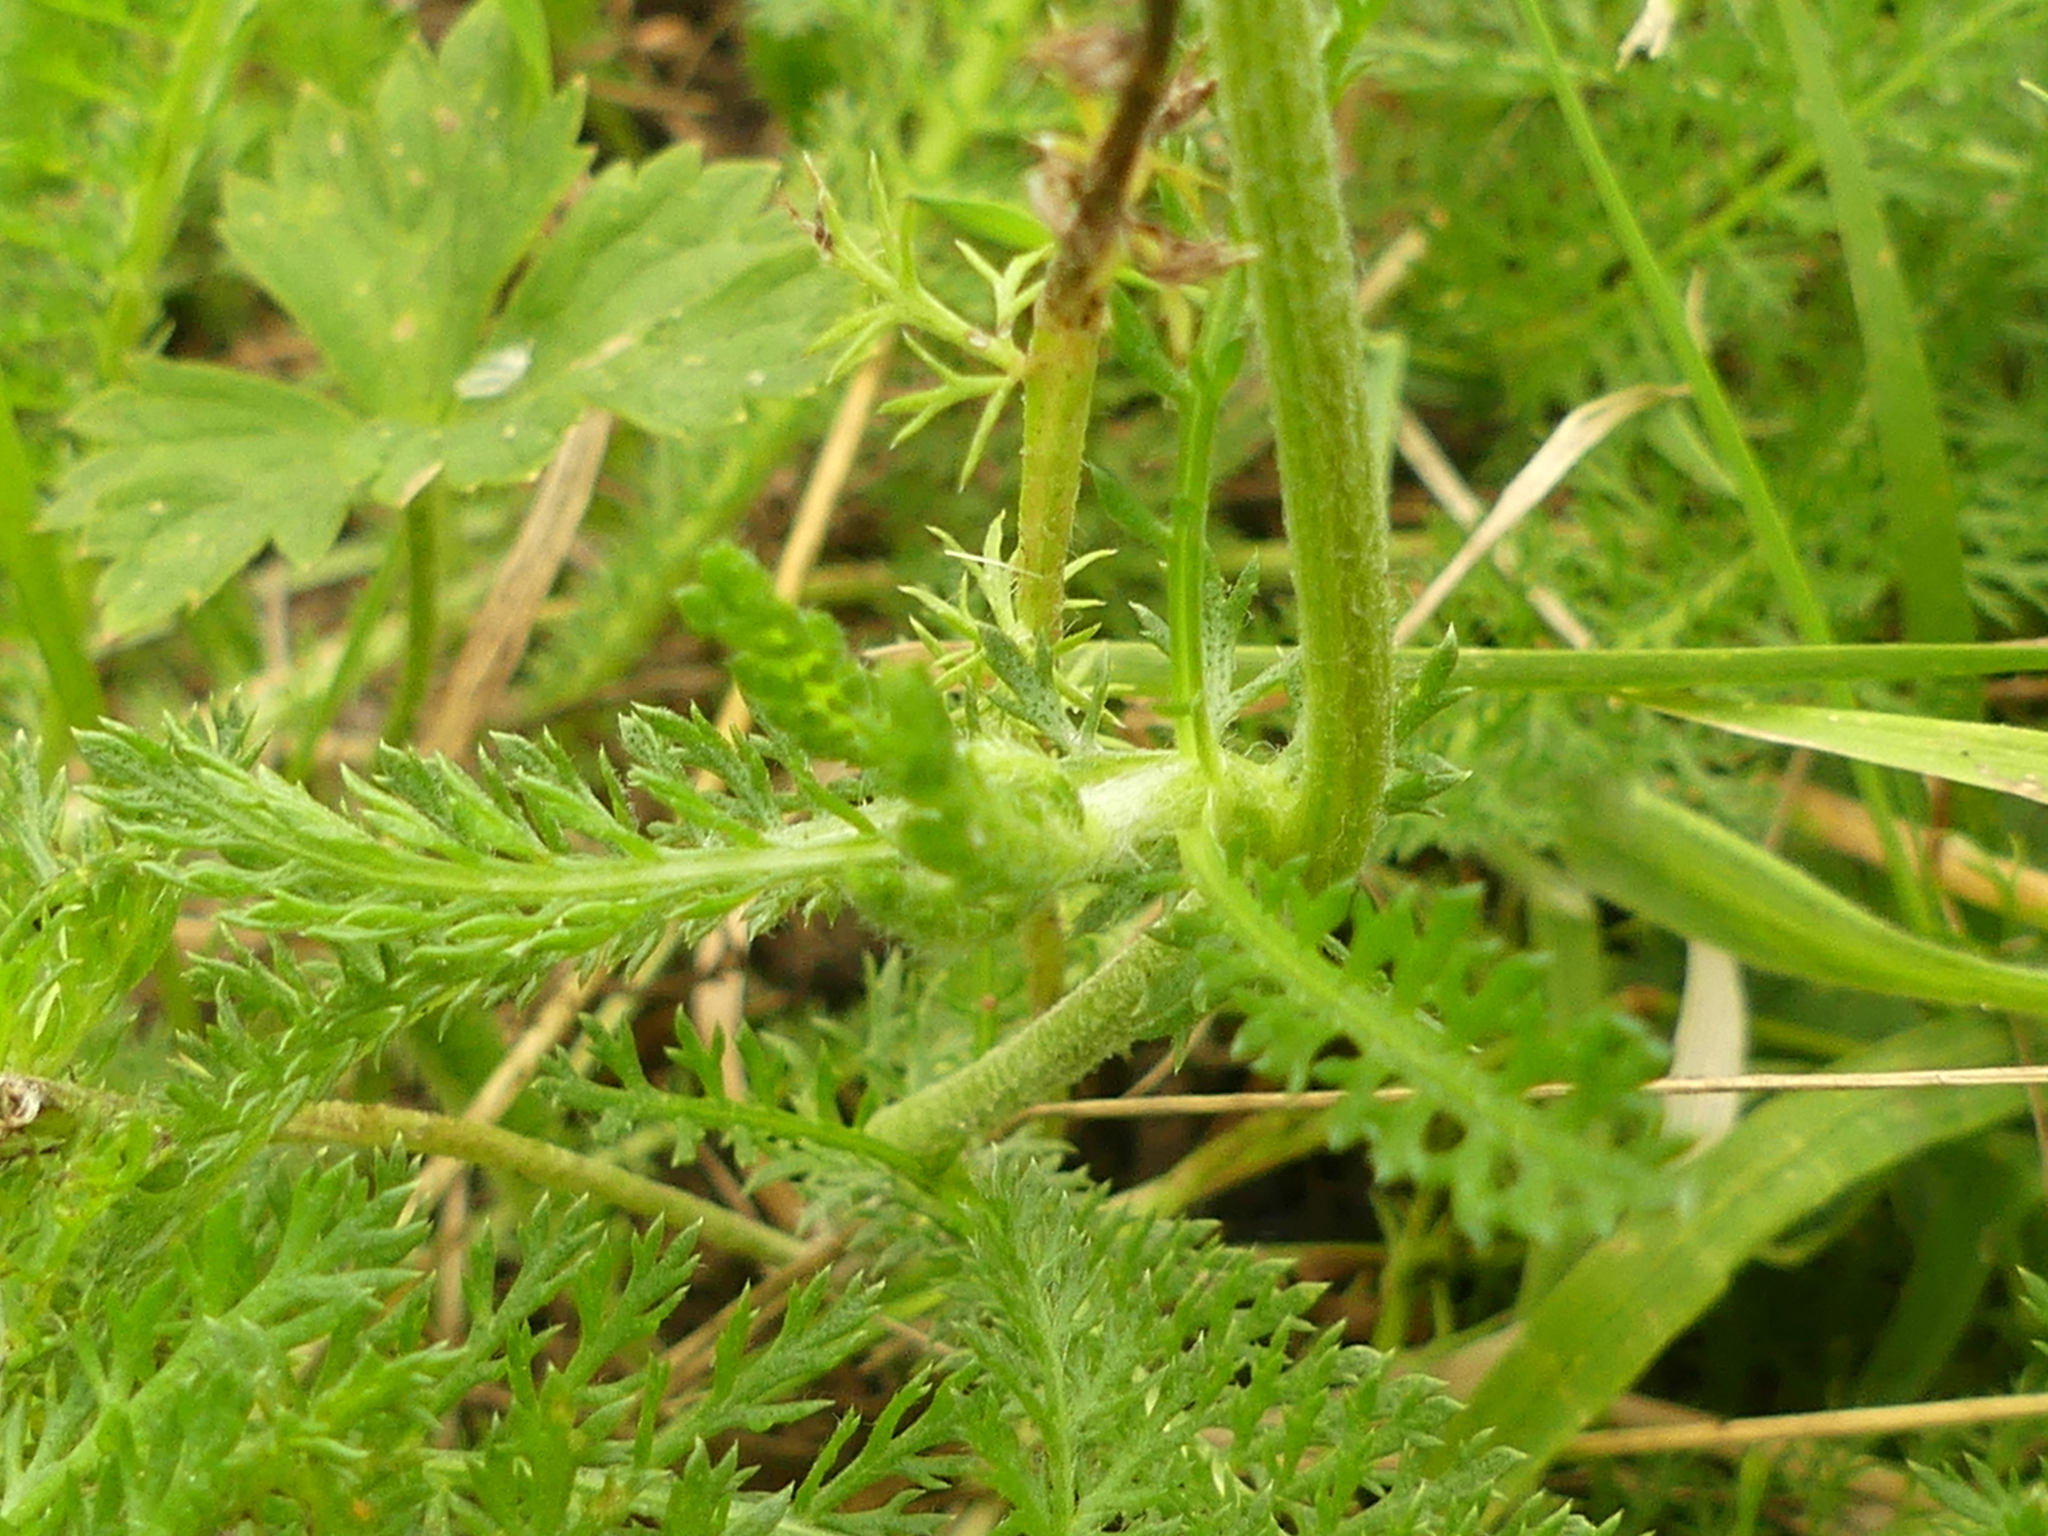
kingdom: Plantae
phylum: Tracheophyta
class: Magnoliopsida
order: Asterales
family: Asteraceae
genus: Achillea
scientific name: Achillea millefolium
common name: Yarrow
